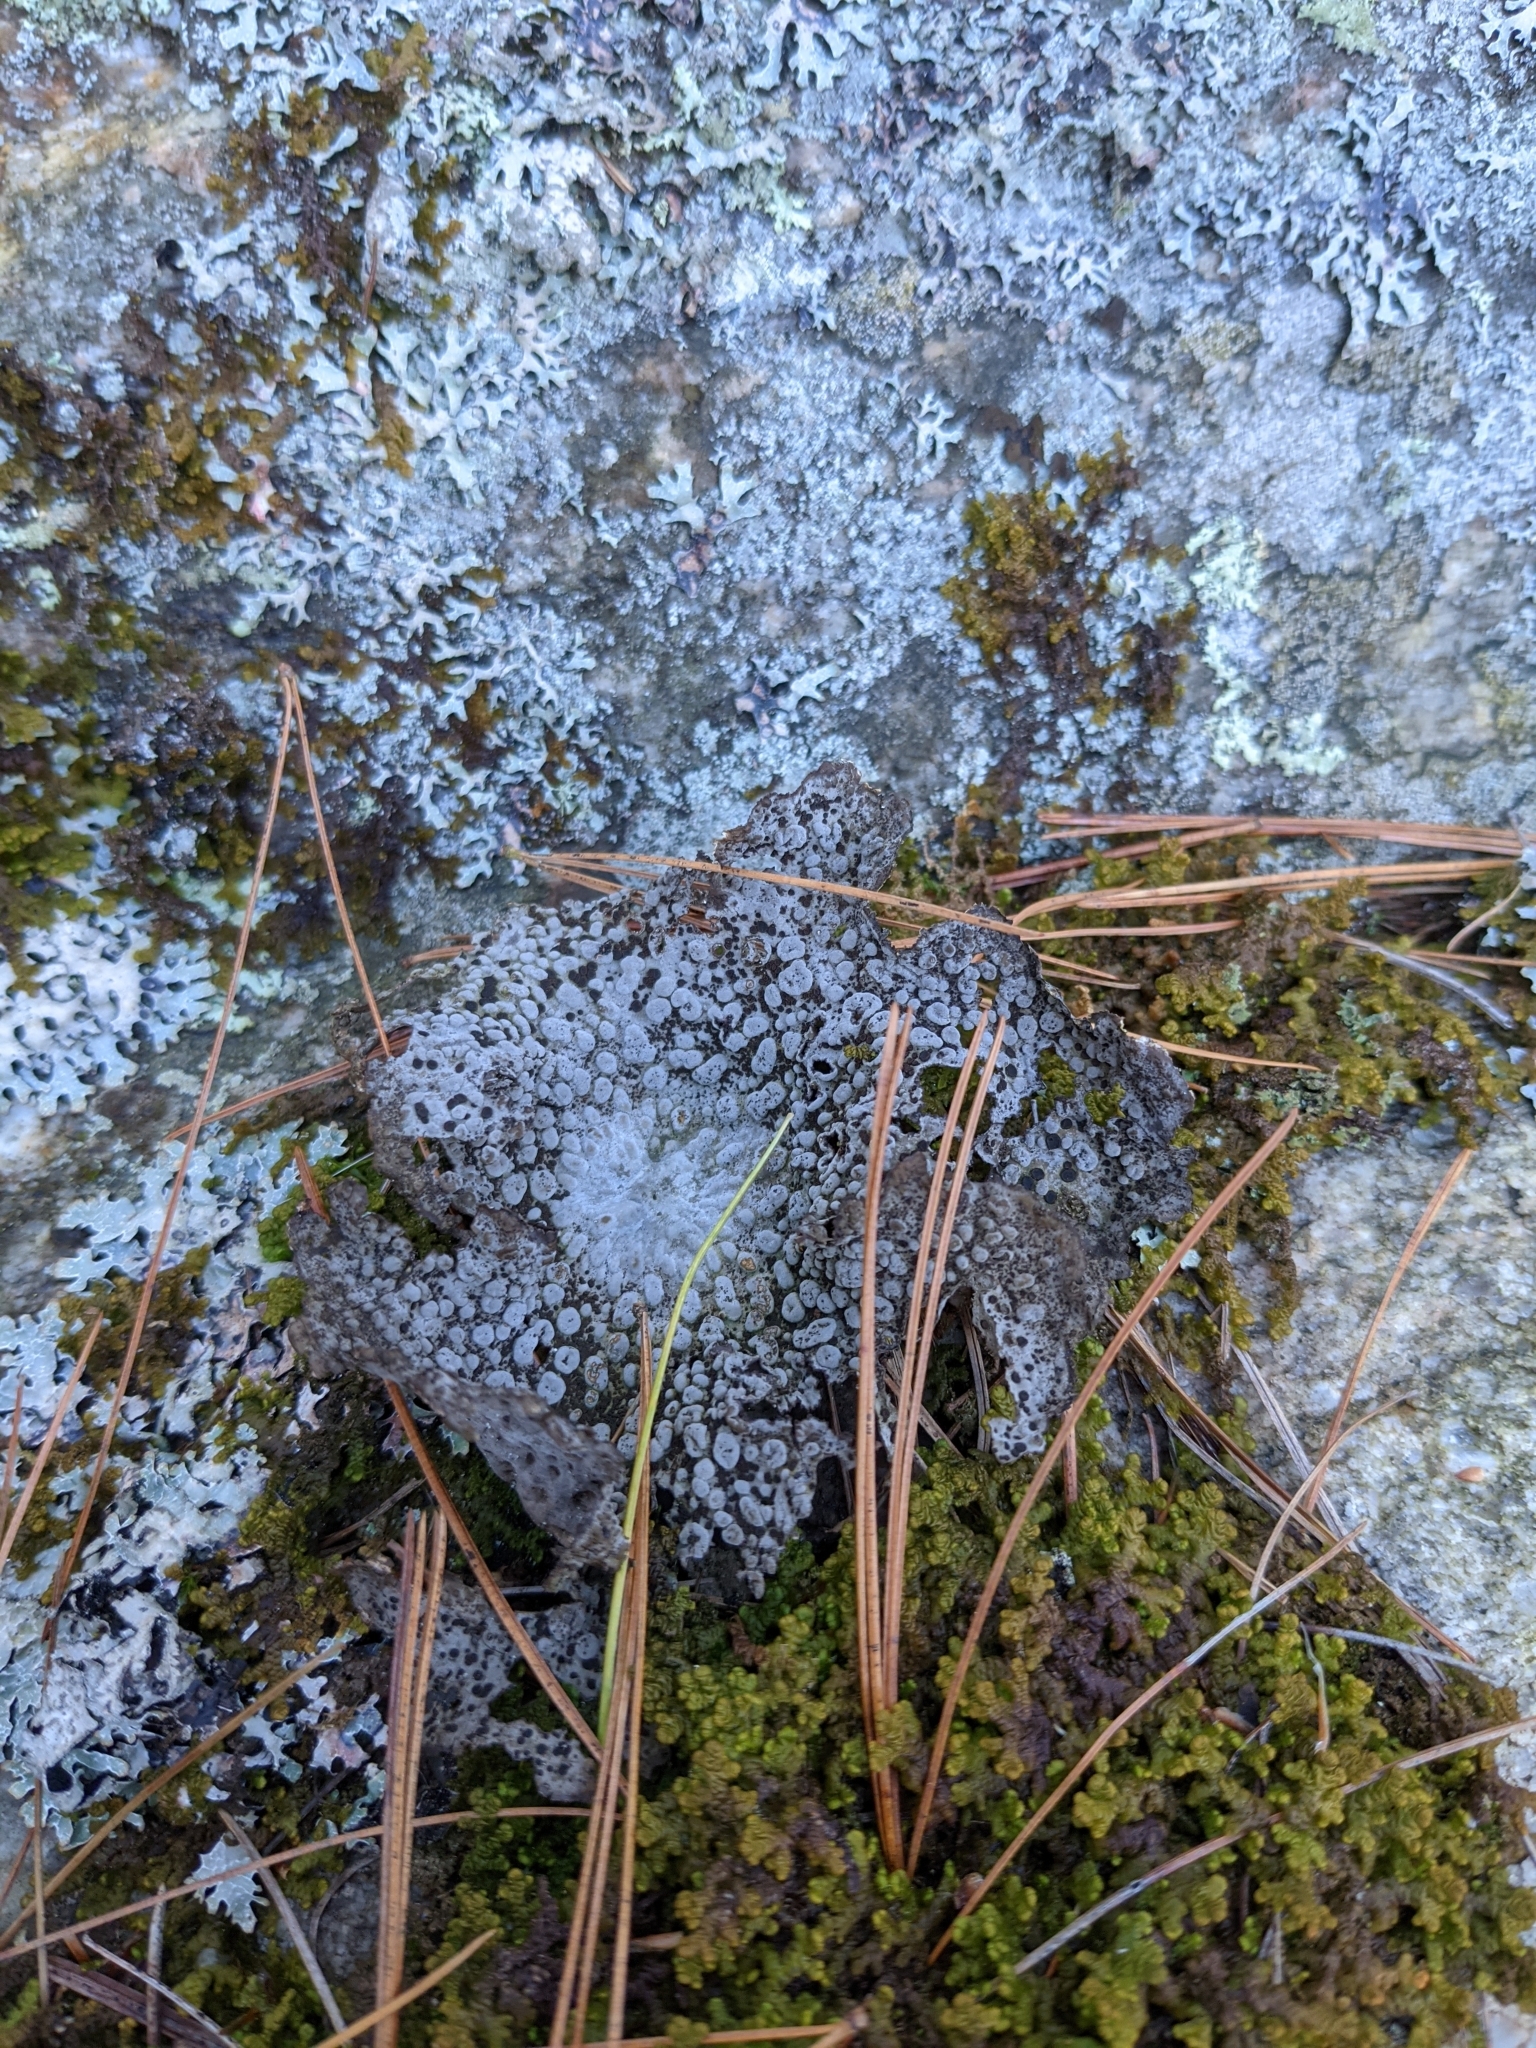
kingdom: Fungi
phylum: Ascomycota
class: Lecanoromycetes
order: Umbilicariales
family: Umbilicariaceae
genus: Lasallia
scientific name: Lasallia papulosa
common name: Common toadskin lichen
